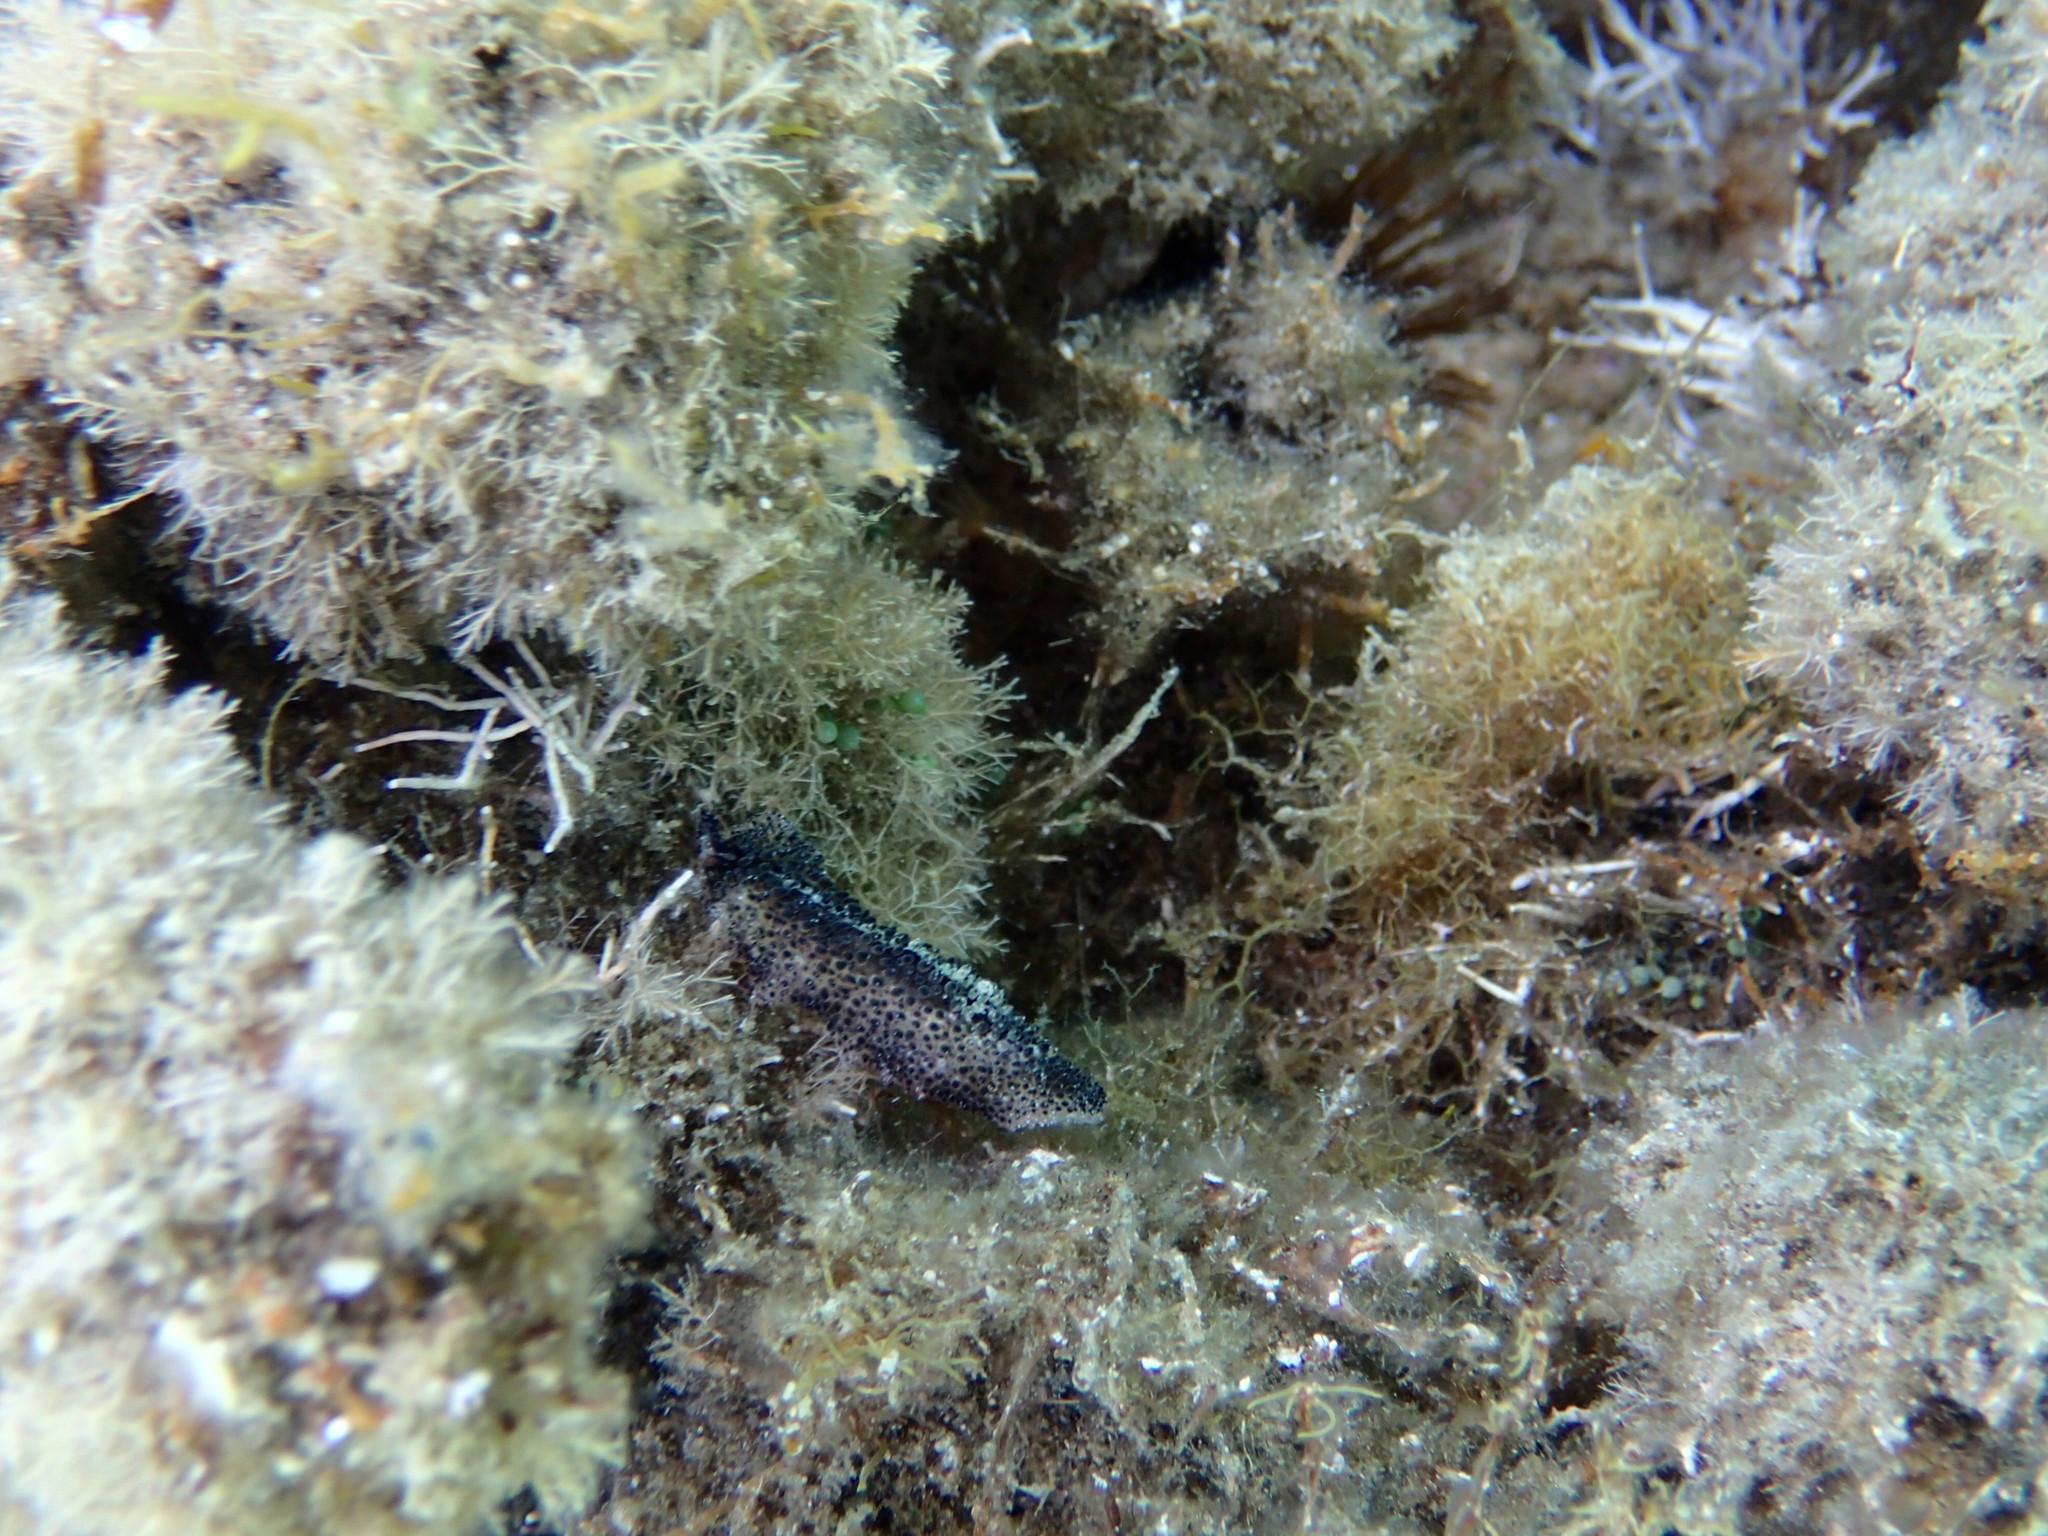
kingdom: Animalia
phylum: Platyhelminthes
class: Turbellaria
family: Pseudocerotidae
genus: Thysanozoon
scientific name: Thysanozoon brocchii
